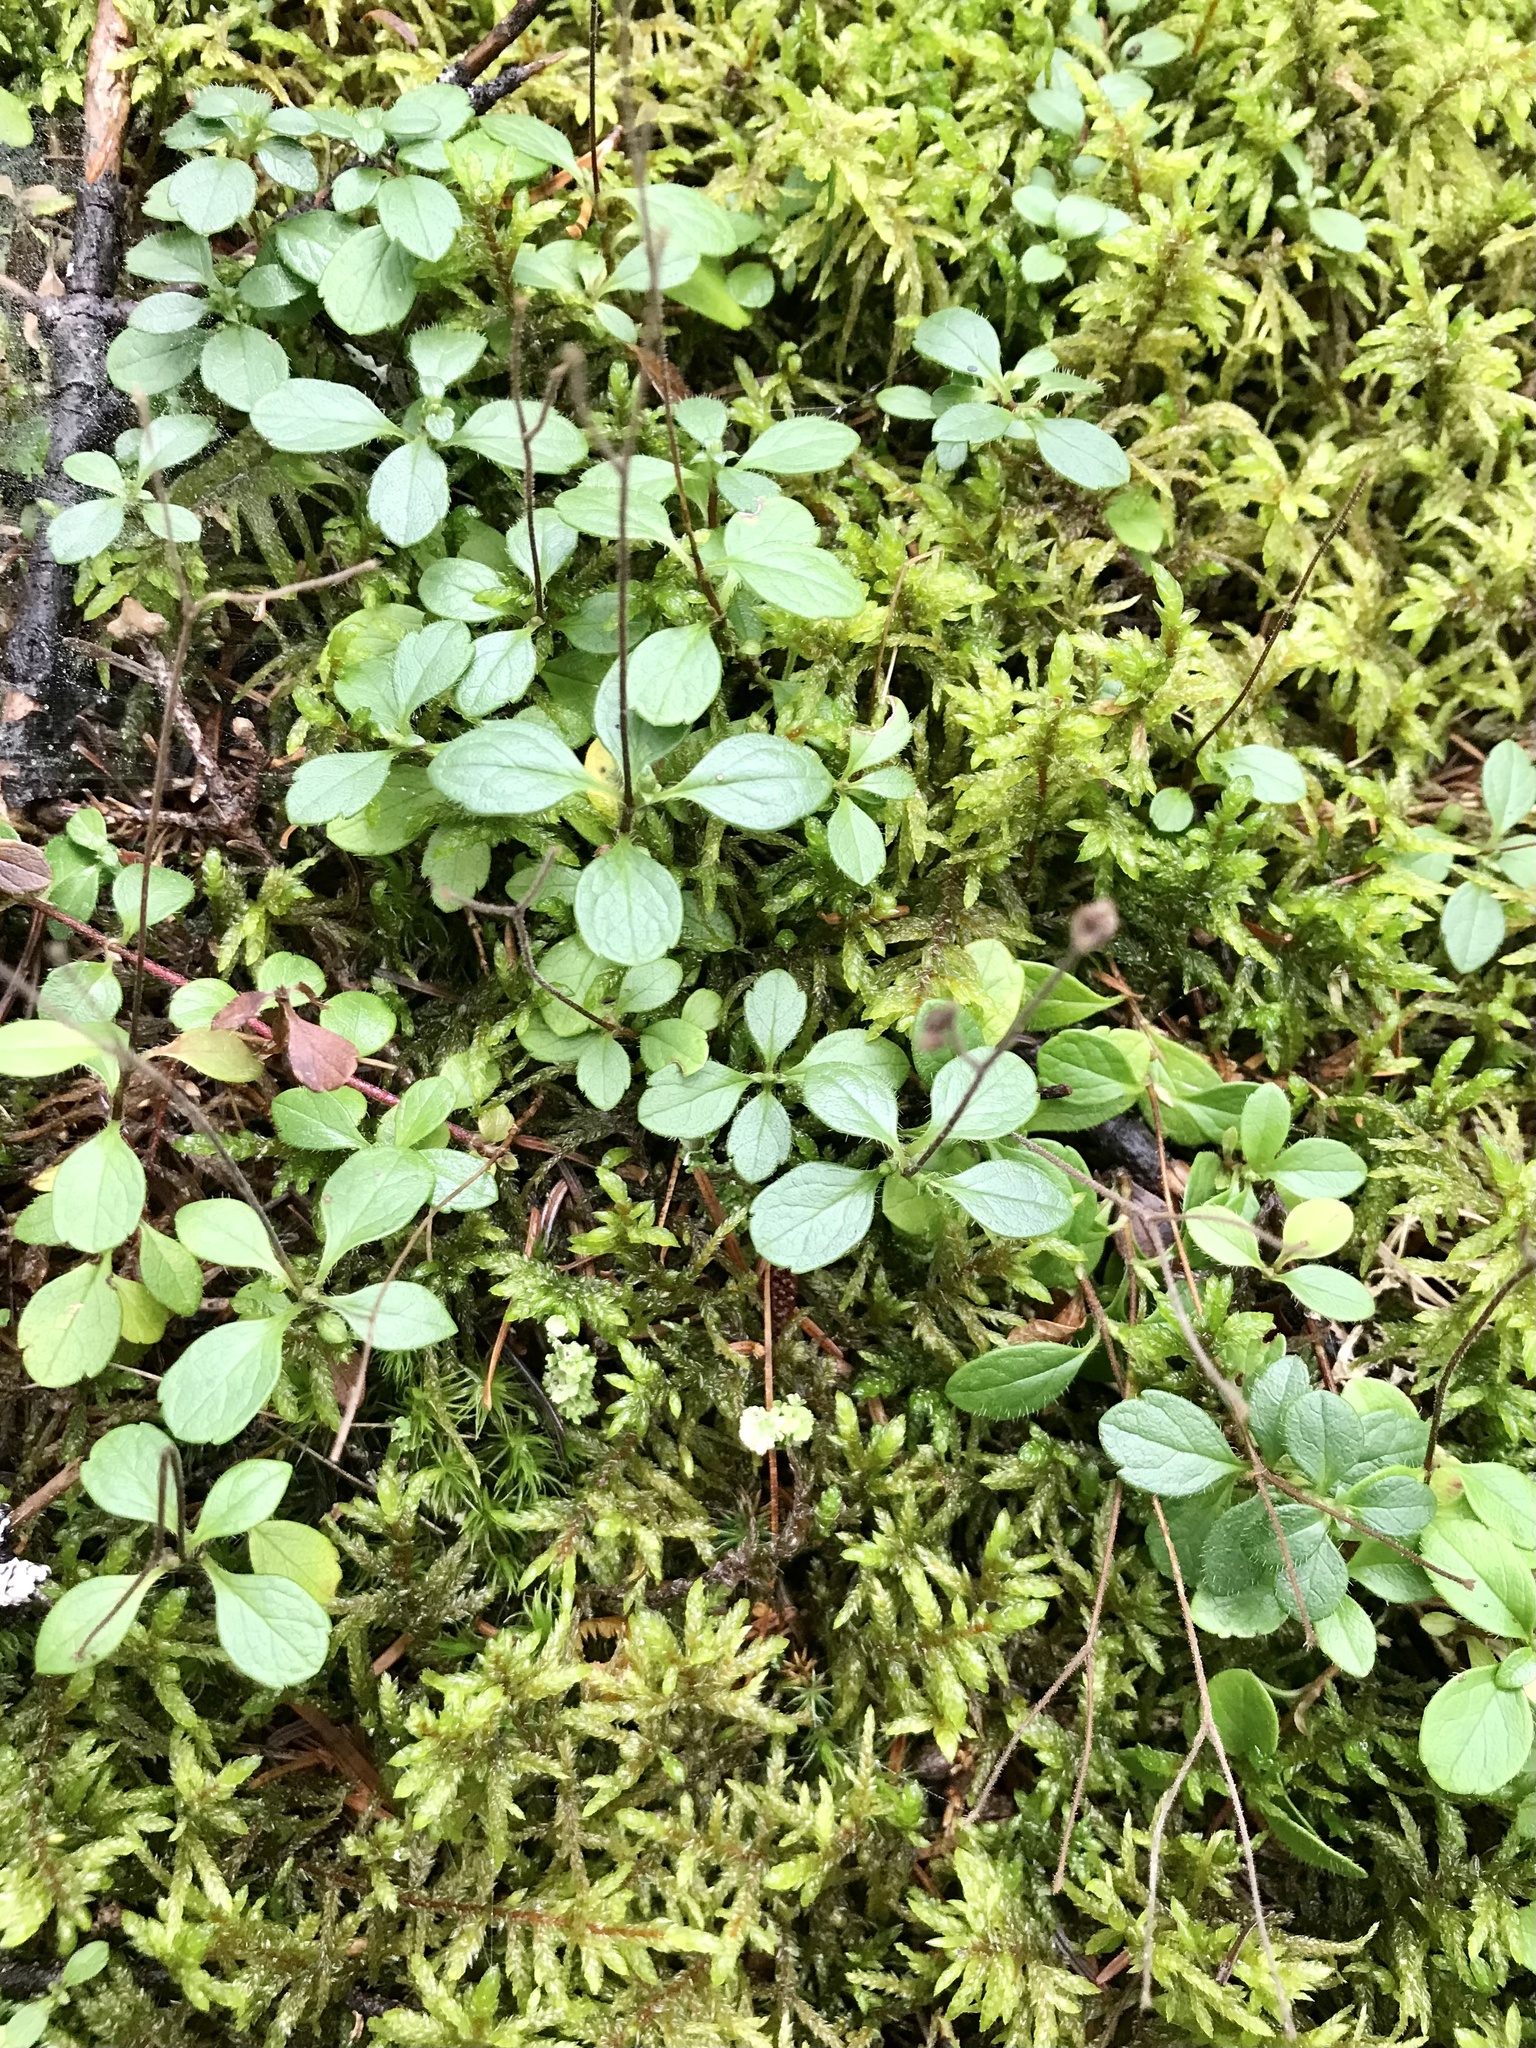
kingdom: Plantae
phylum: Tracheophyta
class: Magnoliopsida
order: Dipsacales
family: Caprifoliaceae
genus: Linnaea
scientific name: Linnaea borealis
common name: Twinflower
